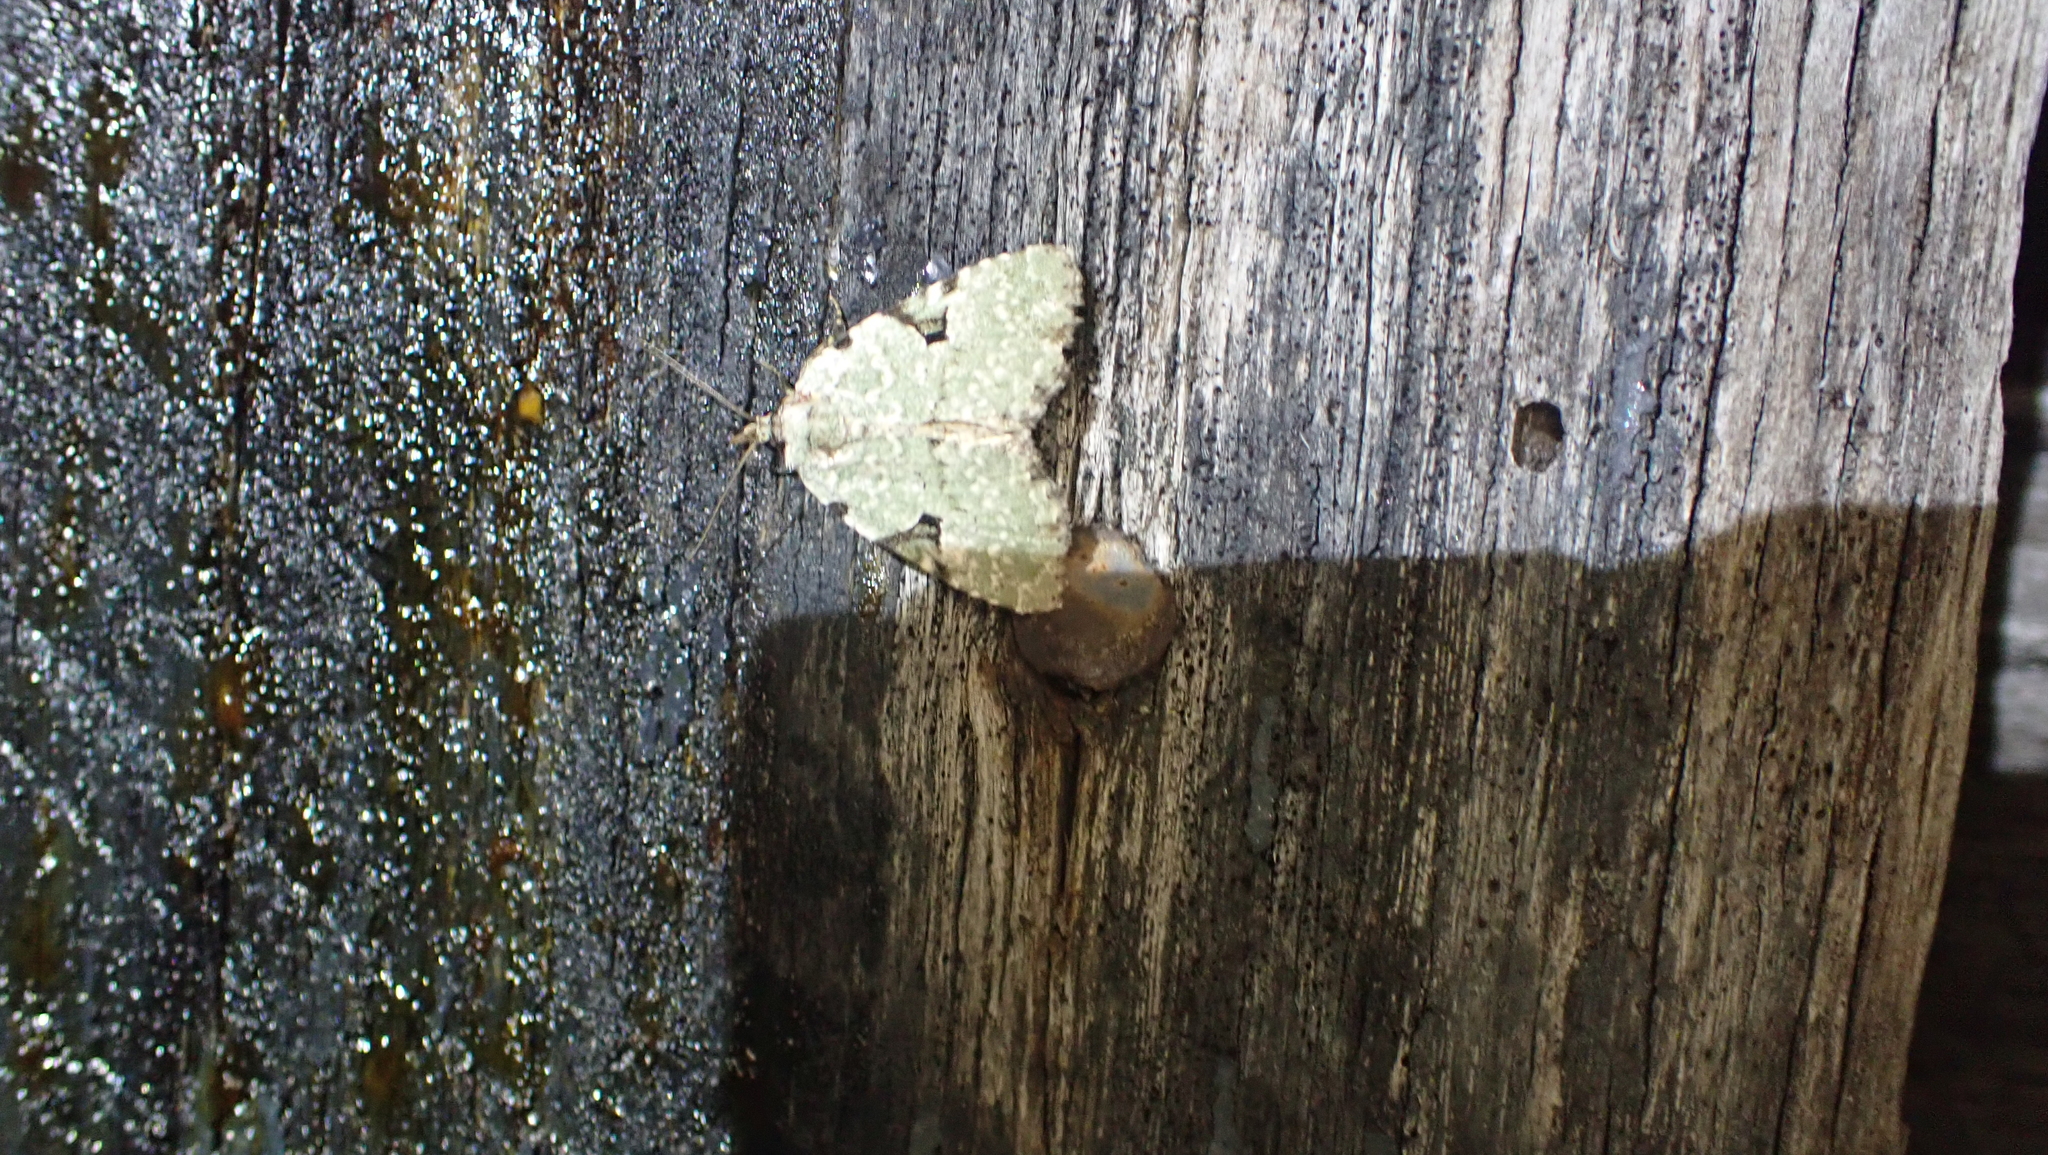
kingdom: Animalia
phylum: Arthropoda
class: Insecta
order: Lepidoptera
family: Noctuidae
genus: Leuconycta
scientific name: Leuconycta diphteroides
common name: Green leuconycta moth
